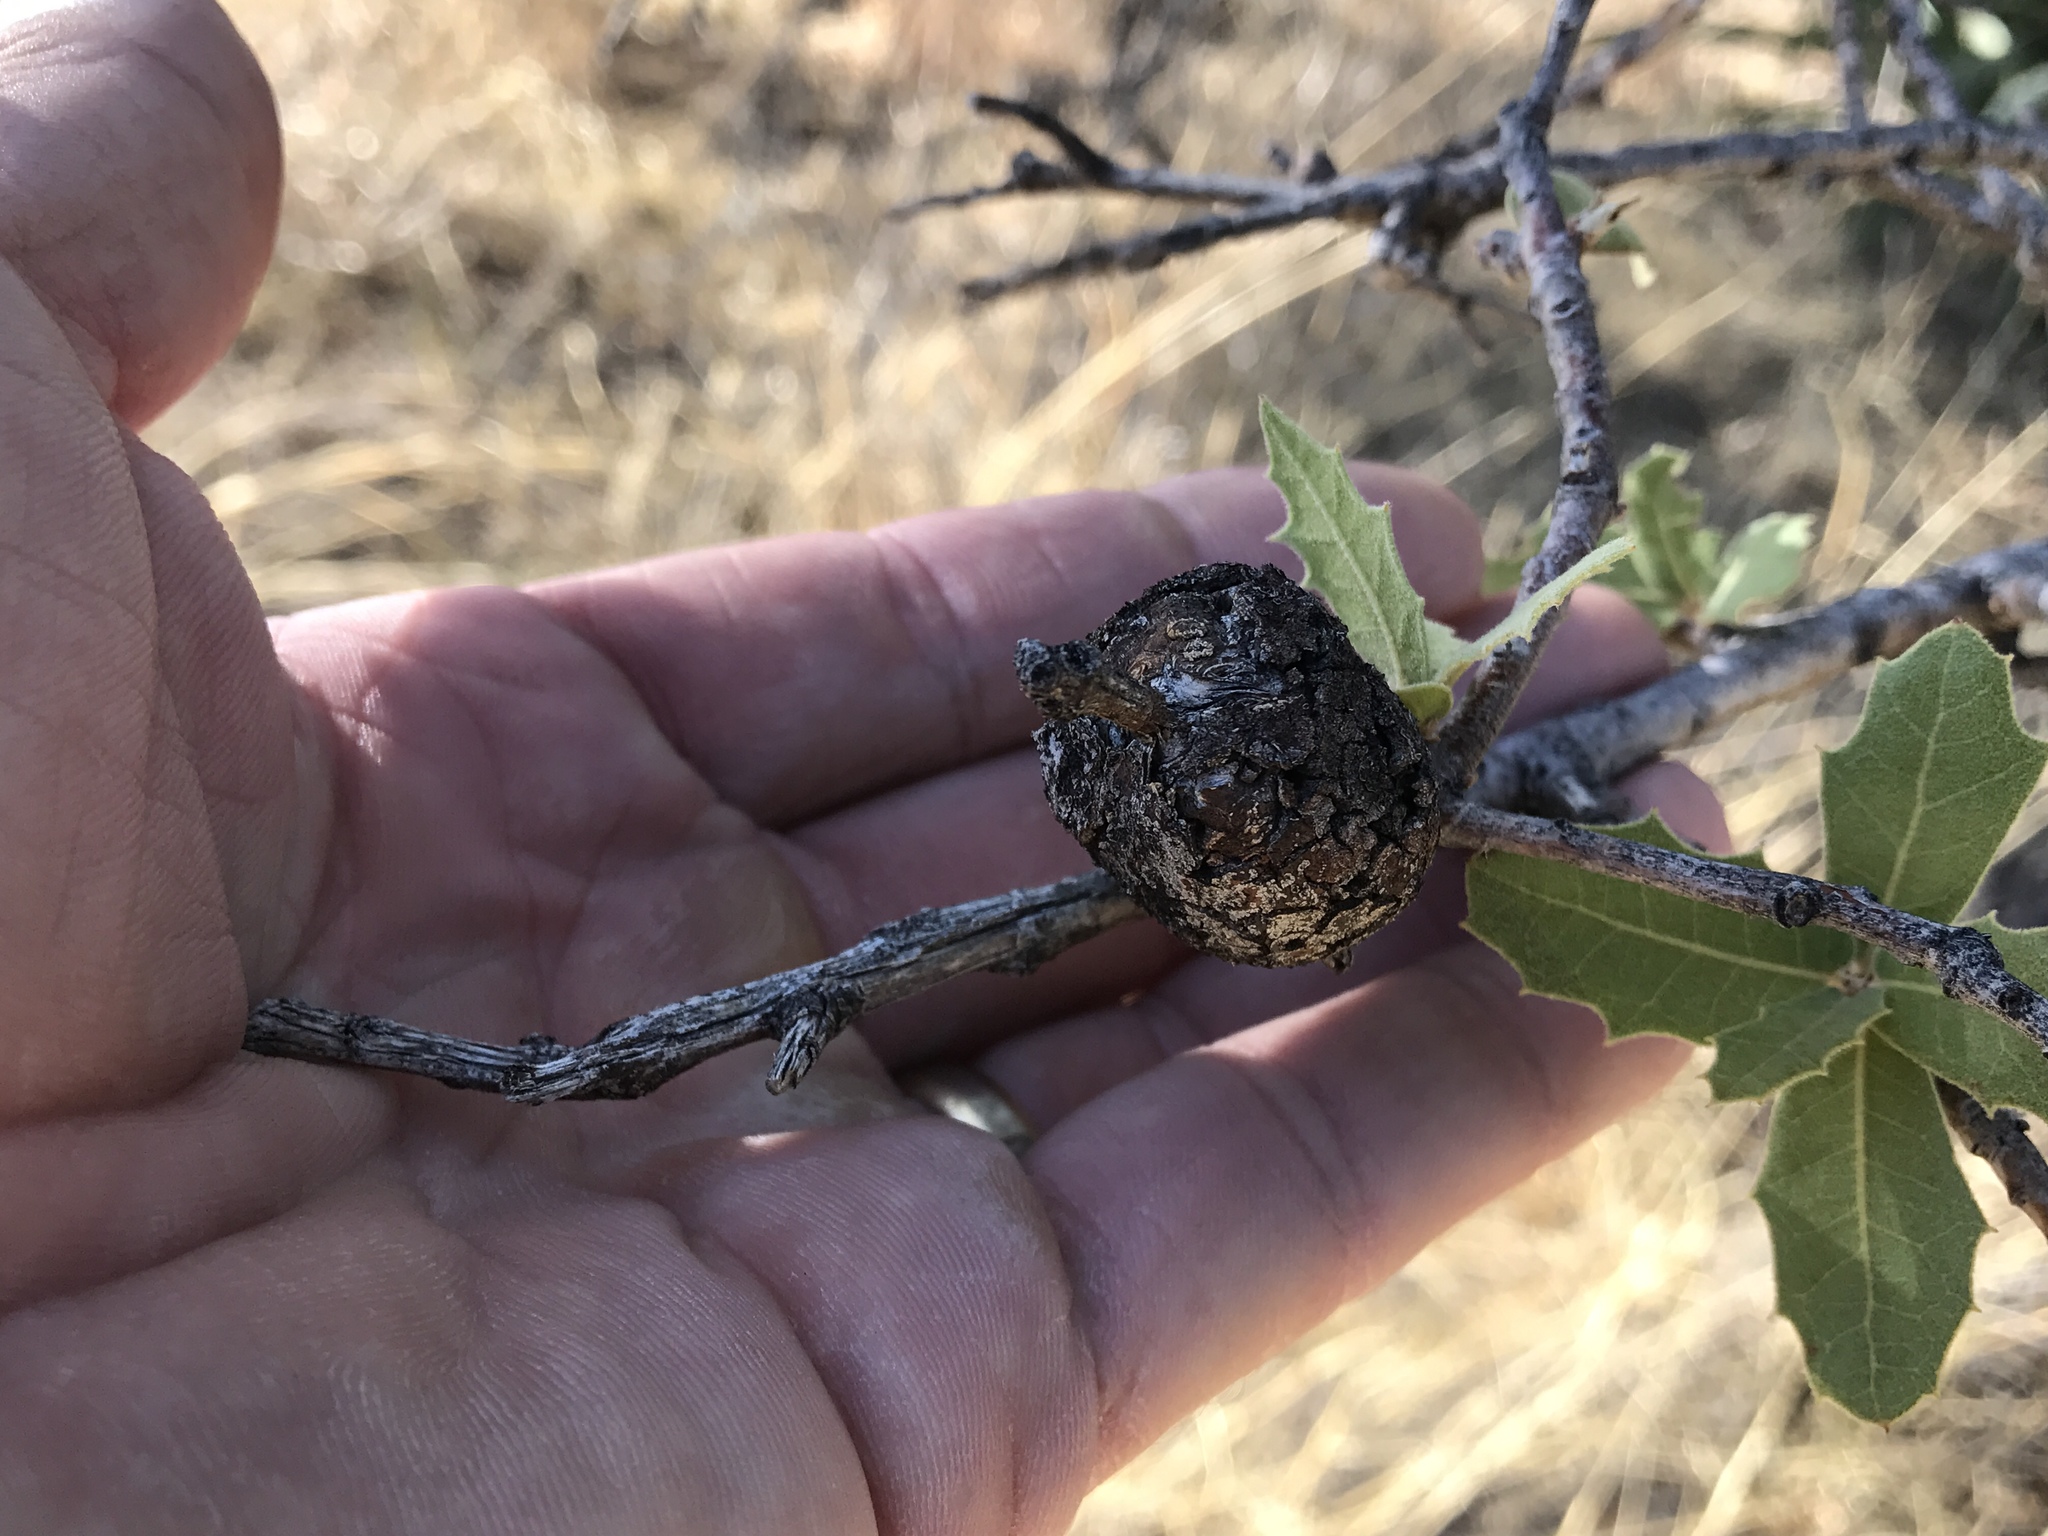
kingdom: Animalia
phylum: Arthropoda
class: Insecta
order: Hymenoptera
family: Cynipidae
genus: Kokkocynips
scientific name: Kokkocynips coxii
